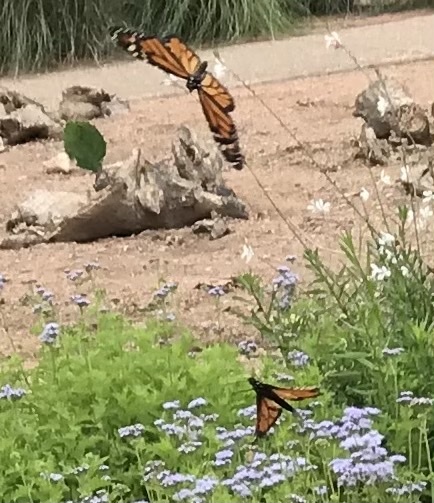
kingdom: Animalia
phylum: Arthropoda
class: Insecta
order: Lepidoptera
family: Nymphalidae
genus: Danaus
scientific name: Danaus plexippus
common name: Monarch
